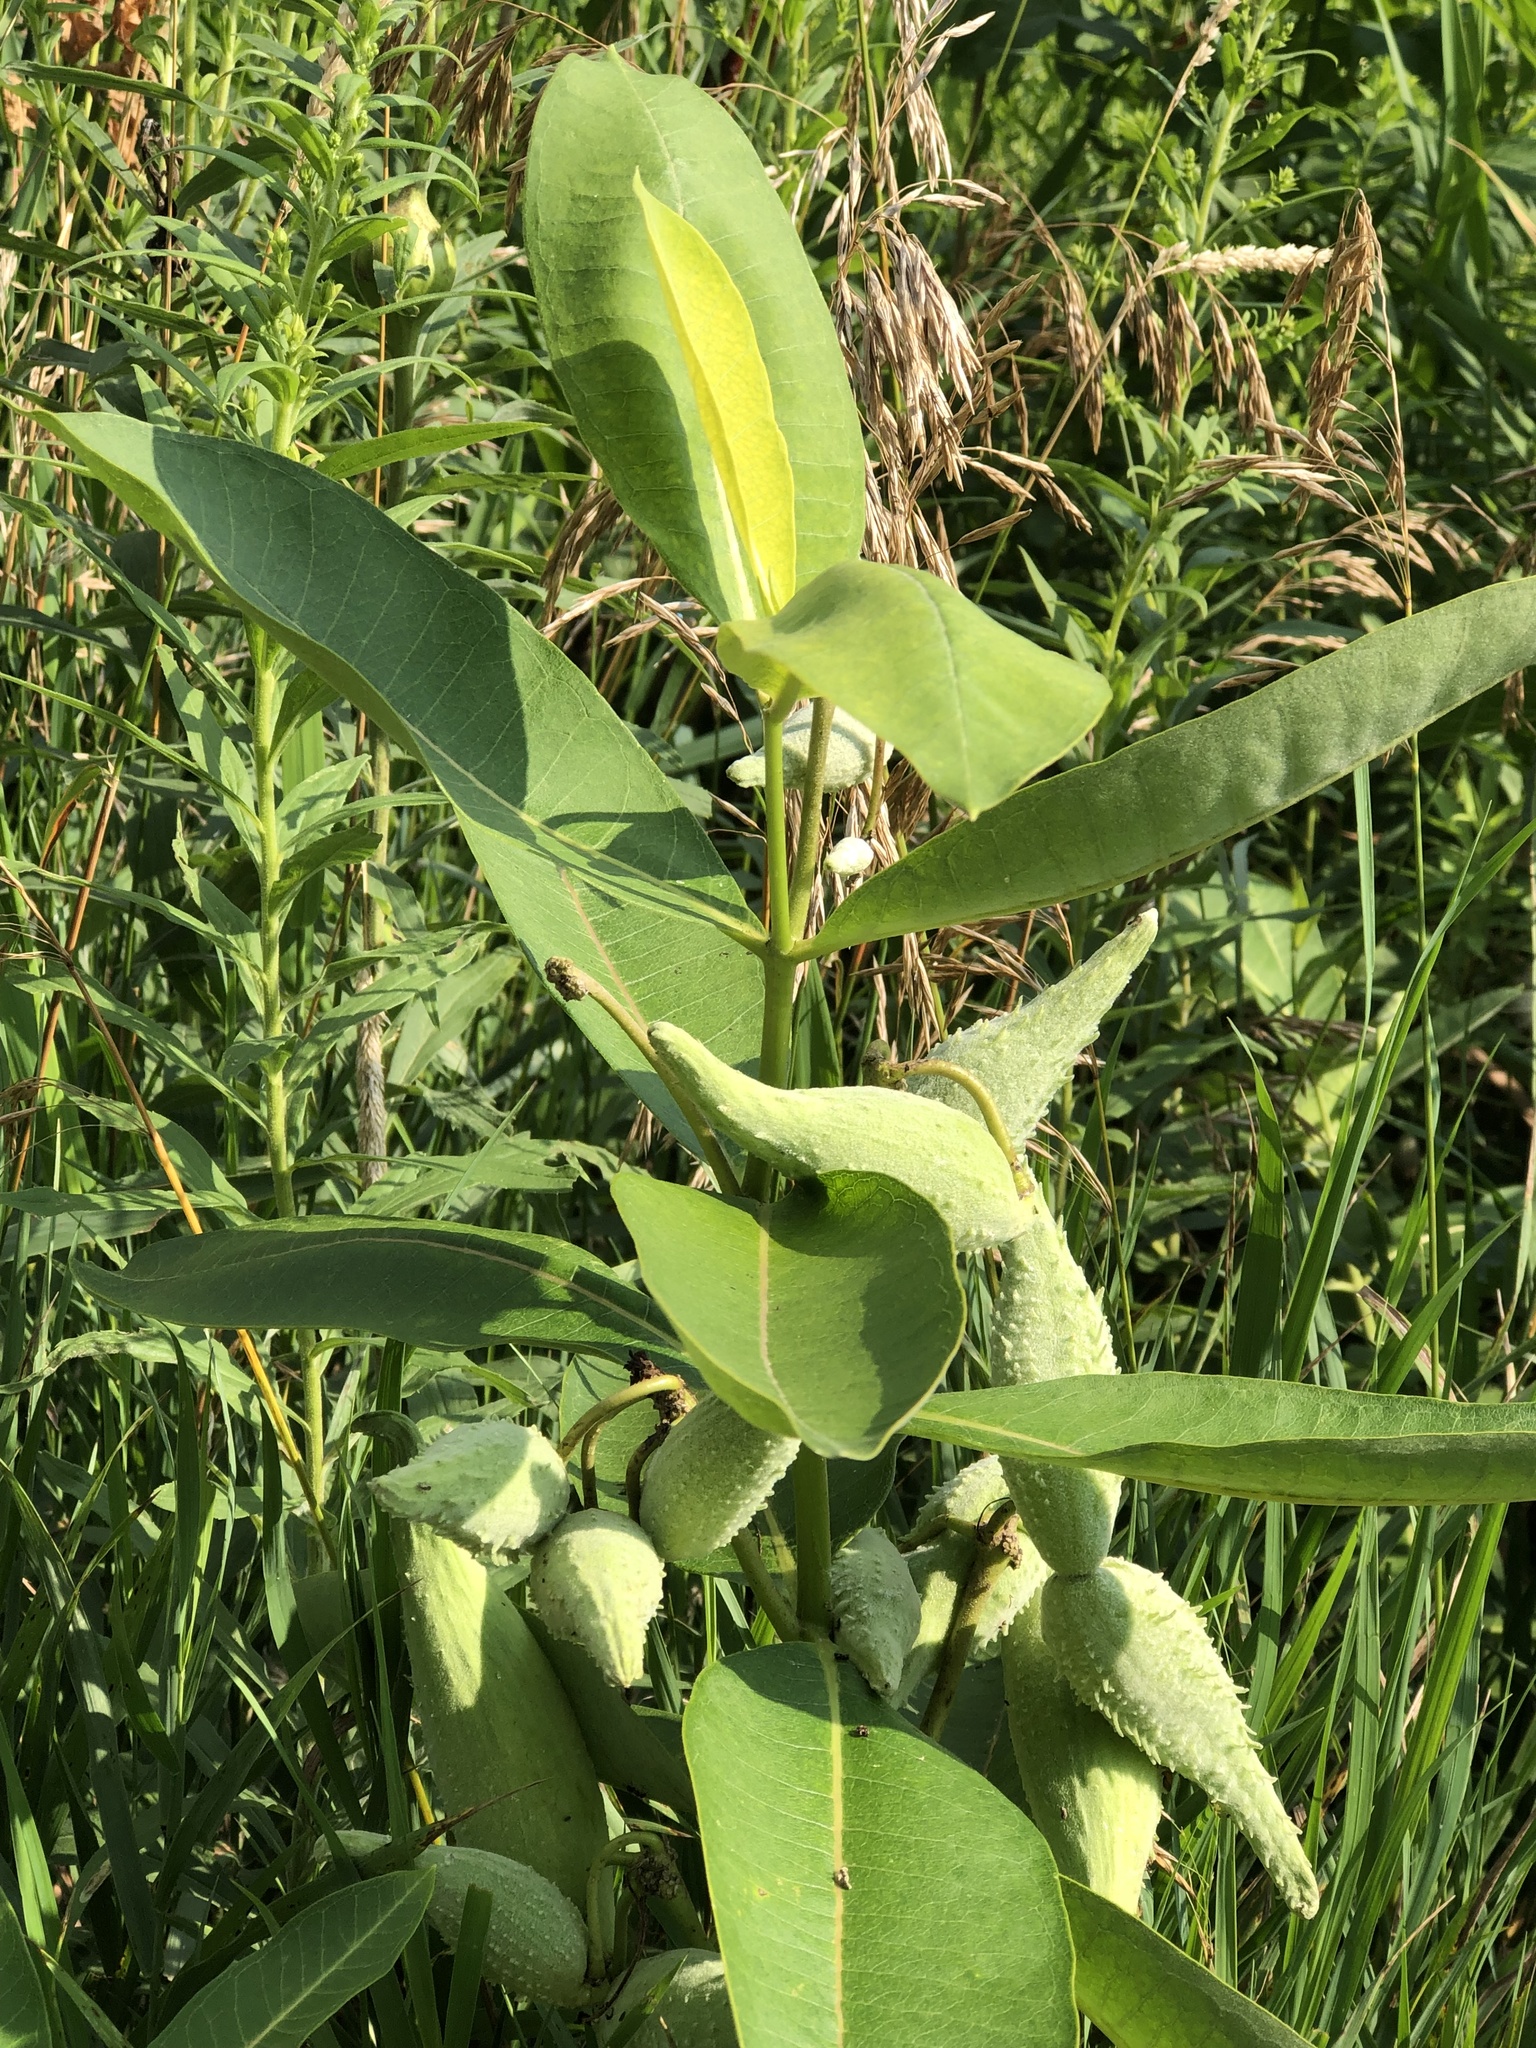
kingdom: Plantae
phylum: Tracheophyta
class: Magnoliopsida
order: Gentianales
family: Apocynaceae
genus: Asclepias
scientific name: Asclepias syriaca
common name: Common milkweed
